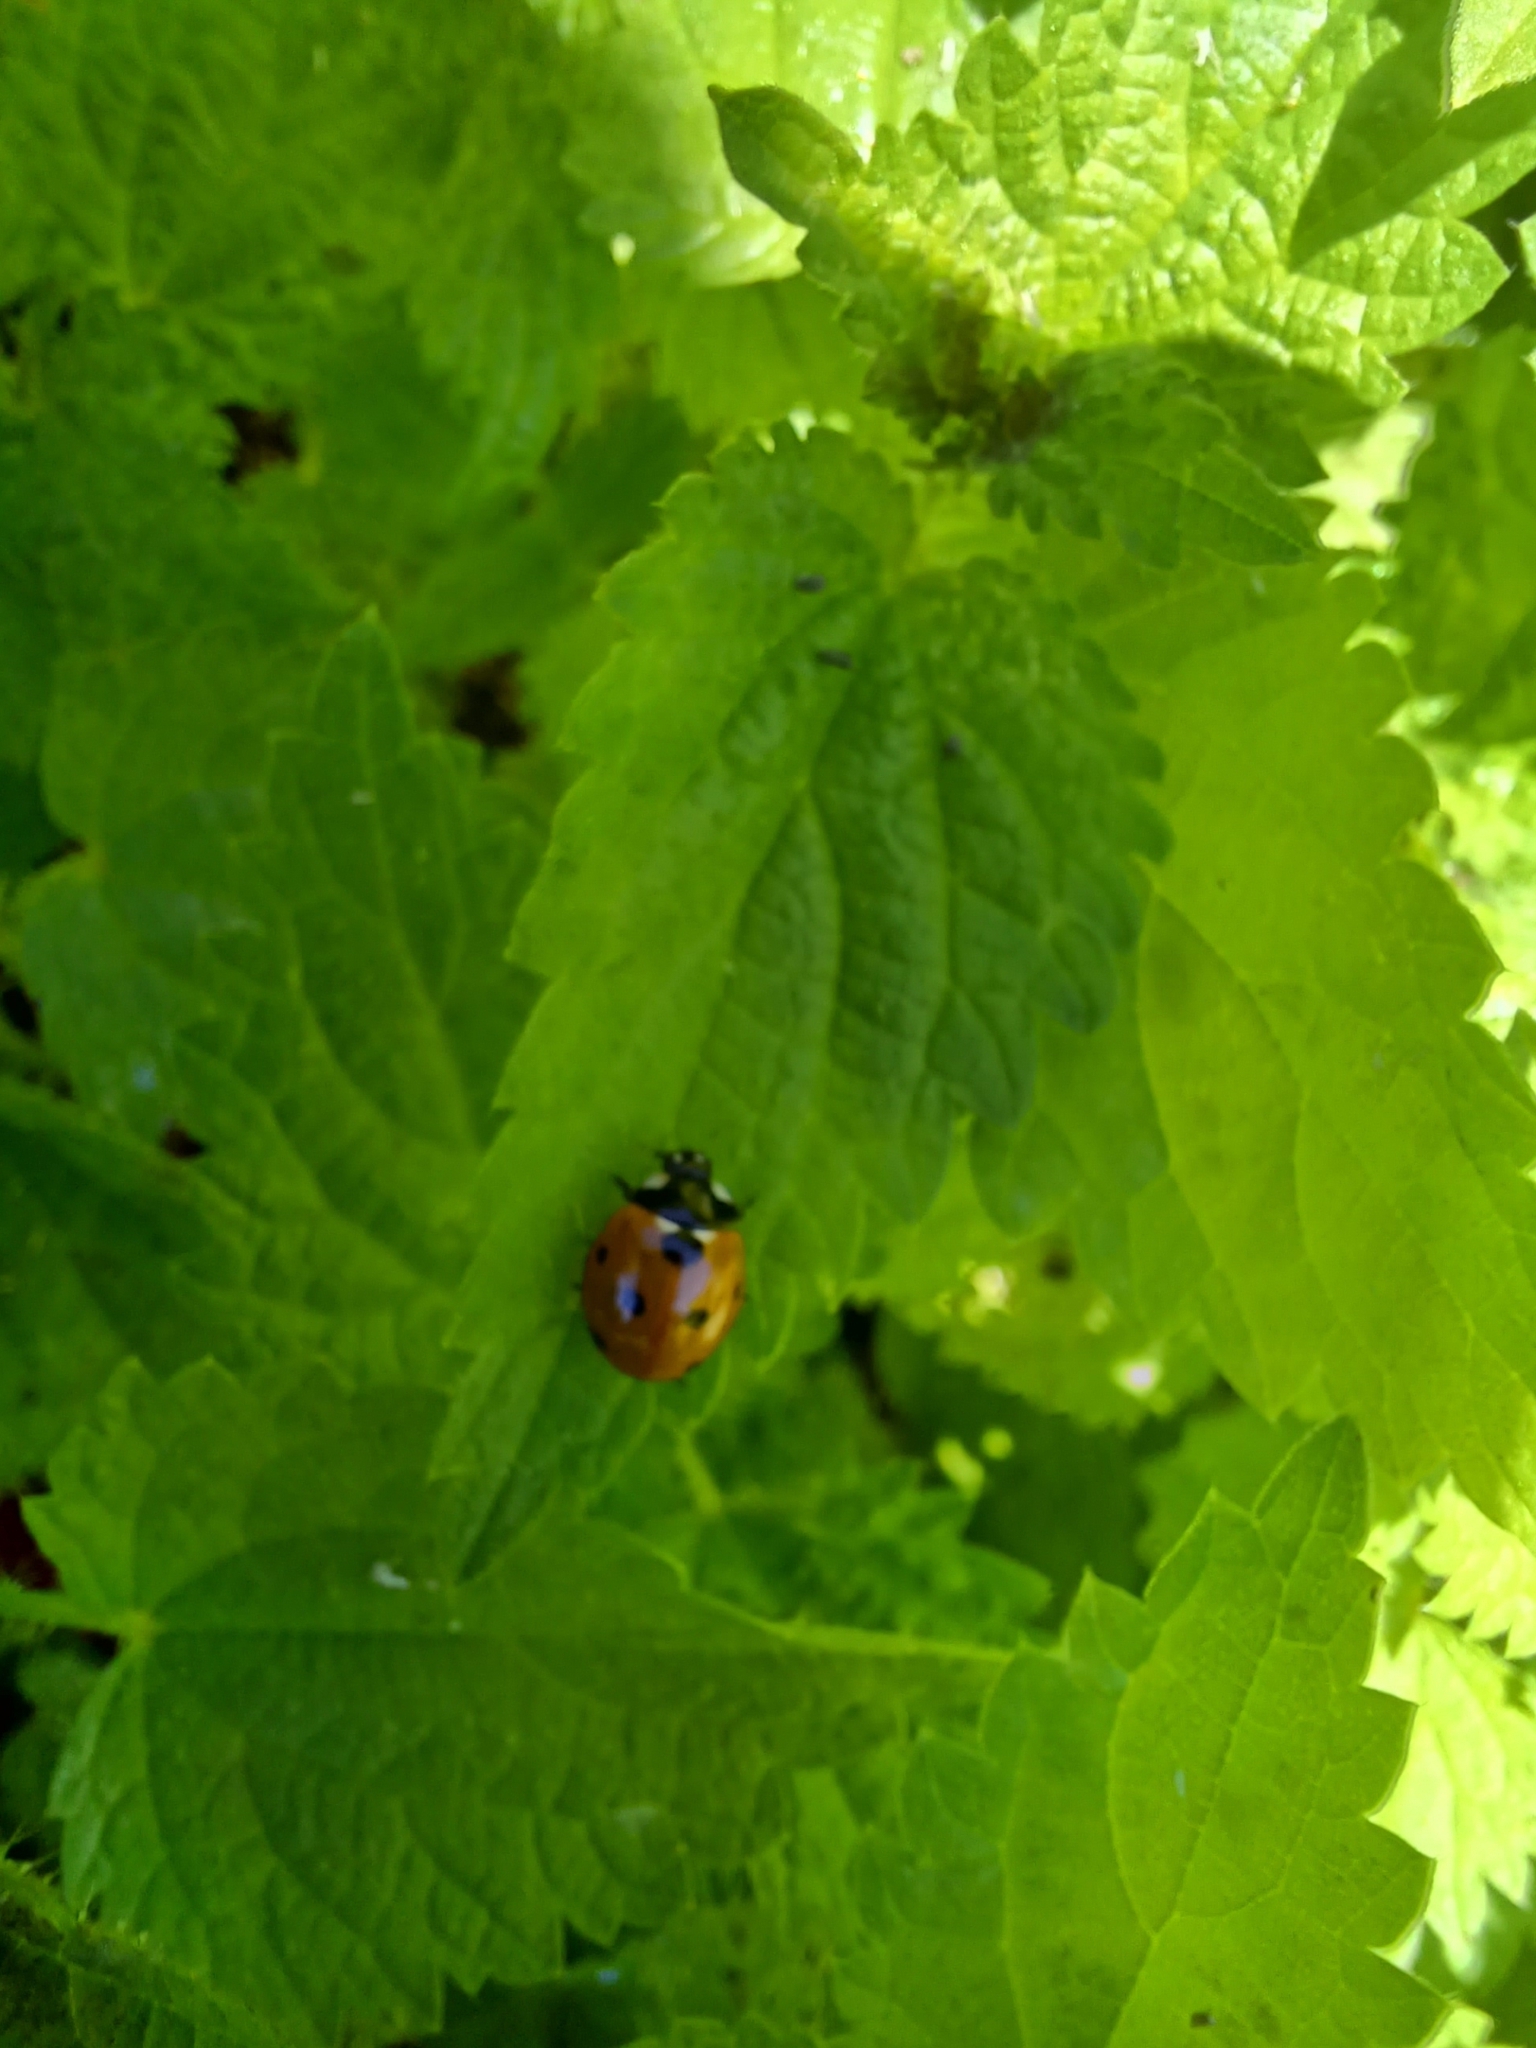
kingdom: Animalia
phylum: Arthropoda
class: Insecta
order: Coleoptera
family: Coccinellidae
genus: Coccinella
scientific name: Coccinella septempunctata
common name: Sevenspotted lady beetle
